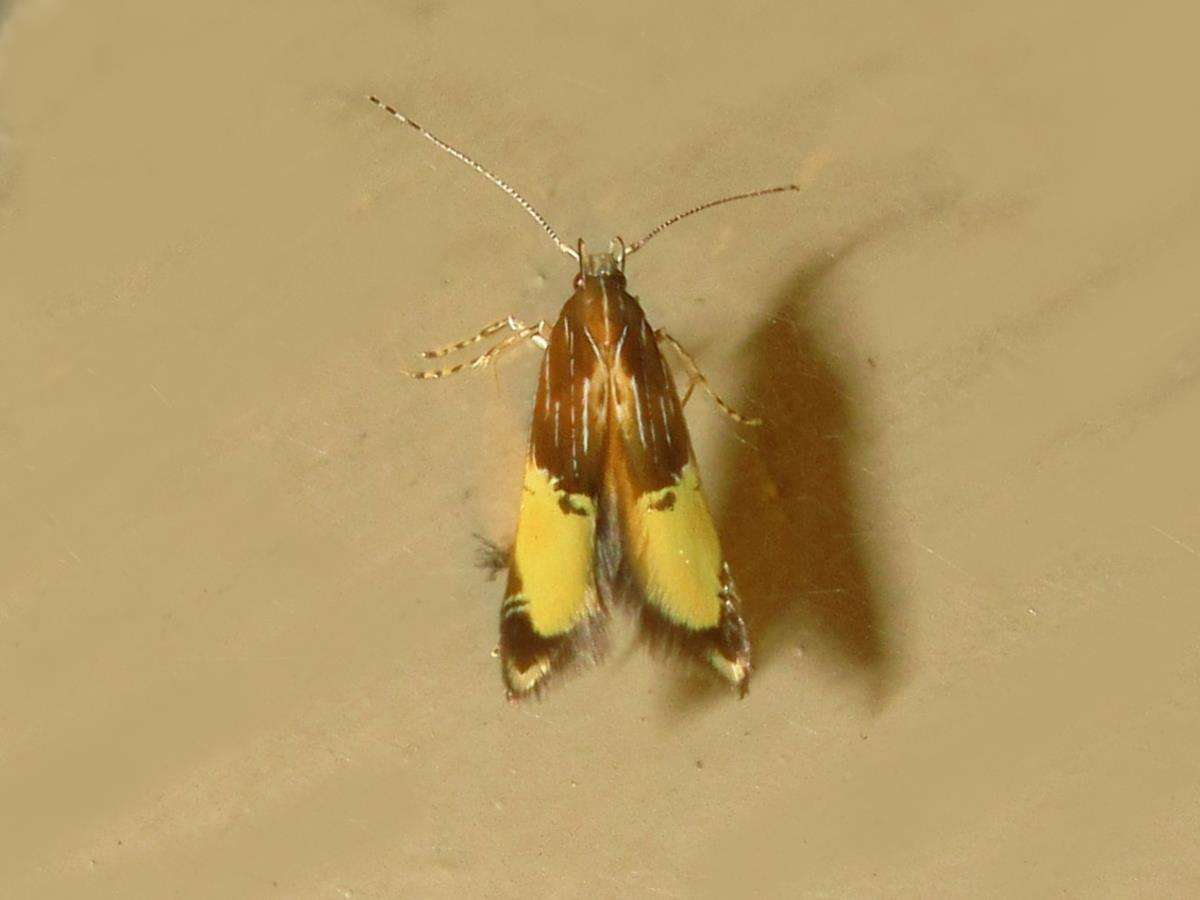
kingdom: Animalia
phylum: Arthropoda
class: Insecta
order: Lepidoptera
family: Cosmopterigidae
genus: Labdia
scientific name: Labdia deliciosella
